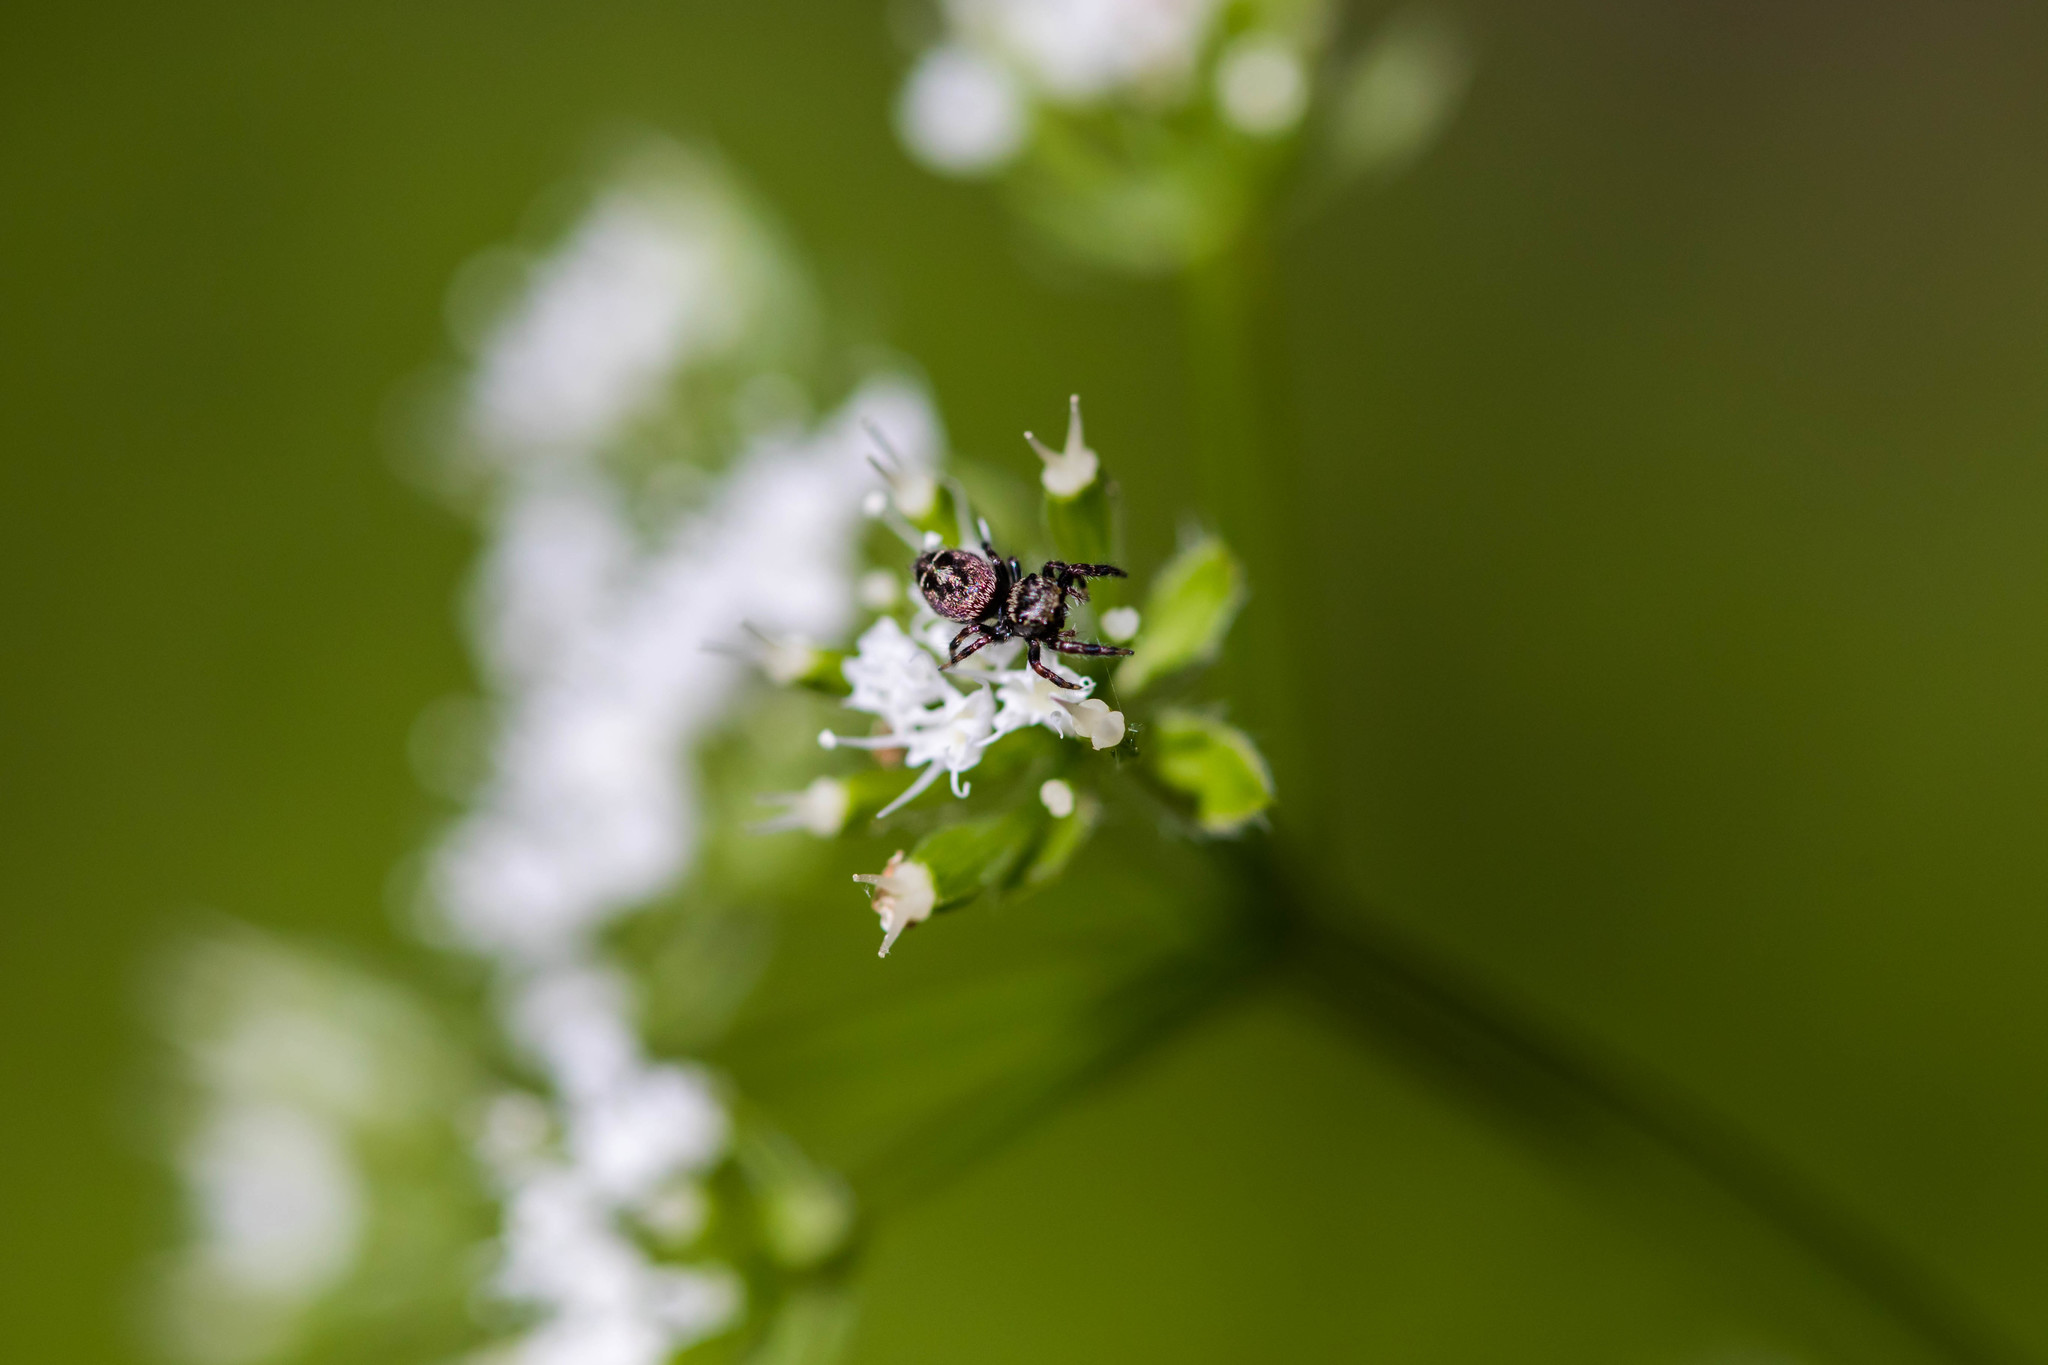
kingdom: Animalia
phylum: Arthropoda
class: Arachnida
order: Araneae
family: Salticidae
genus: Phidippus
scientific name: Phidippus putnami
